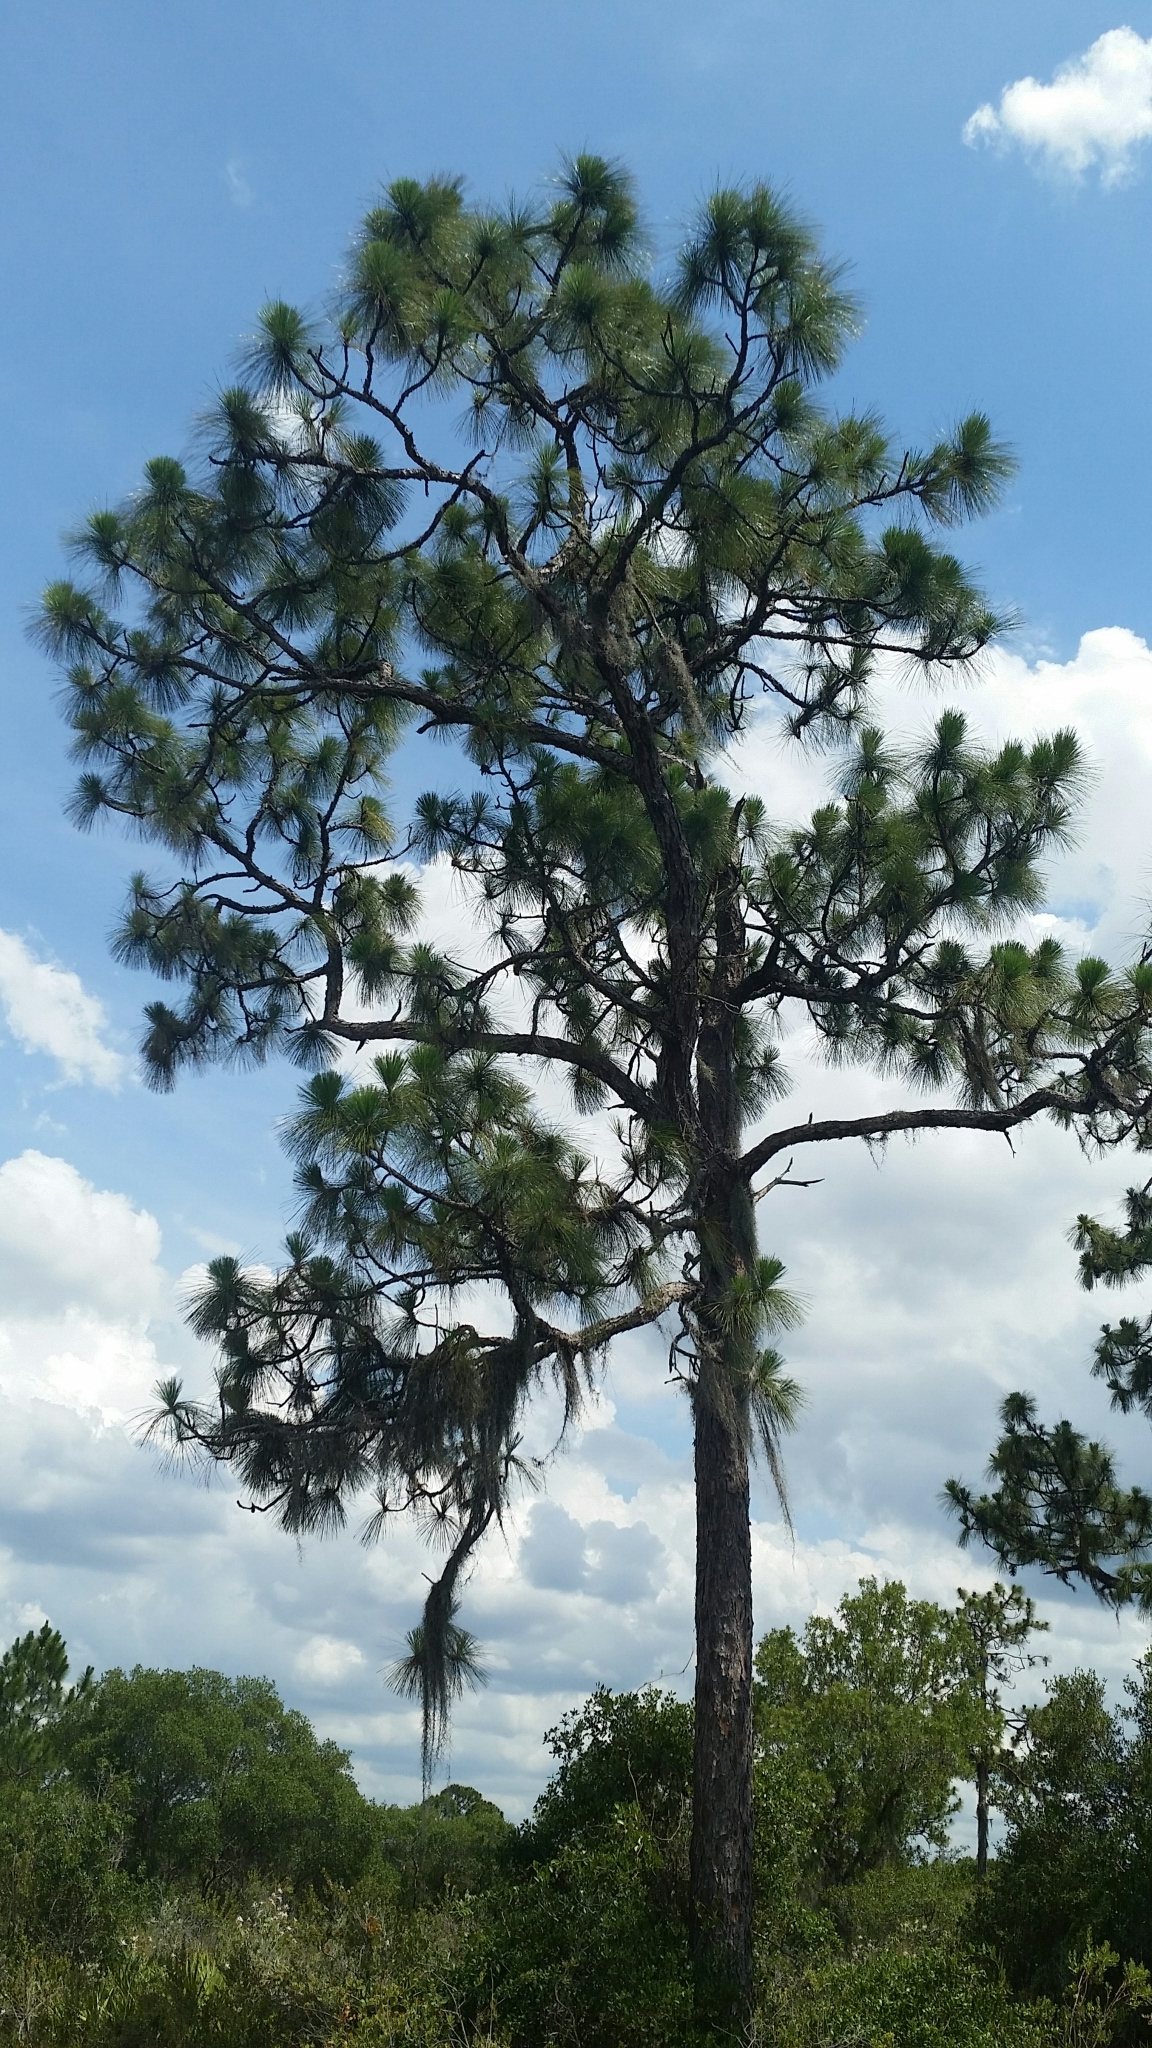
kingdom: Plantae
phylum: Tracheophyta
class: Pinopsida
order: Pinales
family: Pinaceae
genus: Pinus
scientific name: Pinus palustris
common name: Longleaf pine
